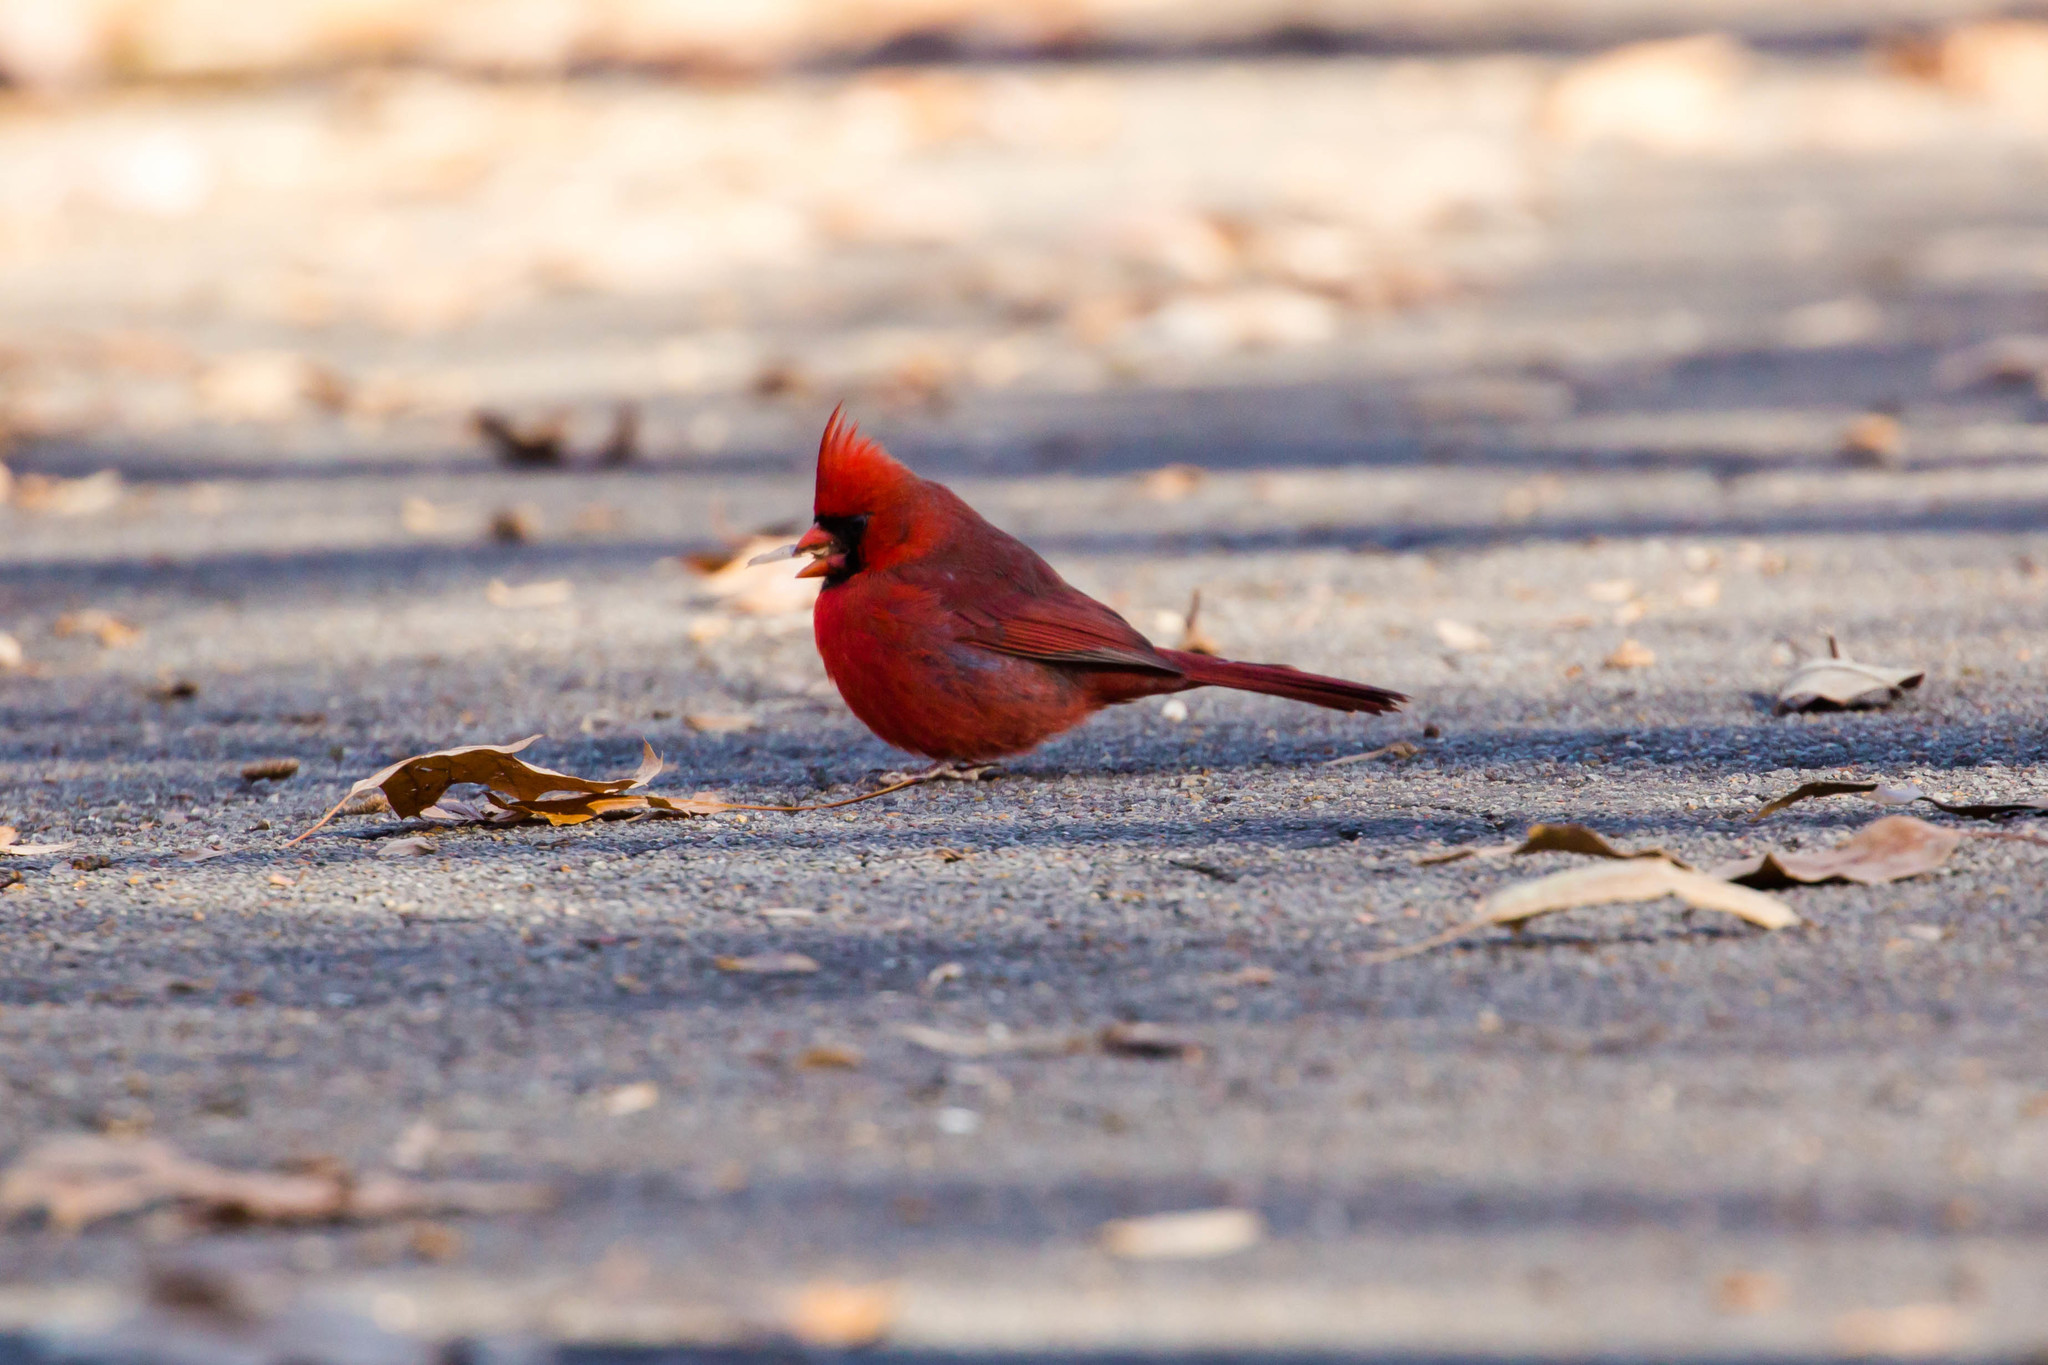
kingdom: Animalia
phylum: Chordata
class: Aves
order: Passeriformes
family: Cardinalidae
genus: Cardinalis
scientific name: Cardinalis cardinalis
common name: Northern cardinal
